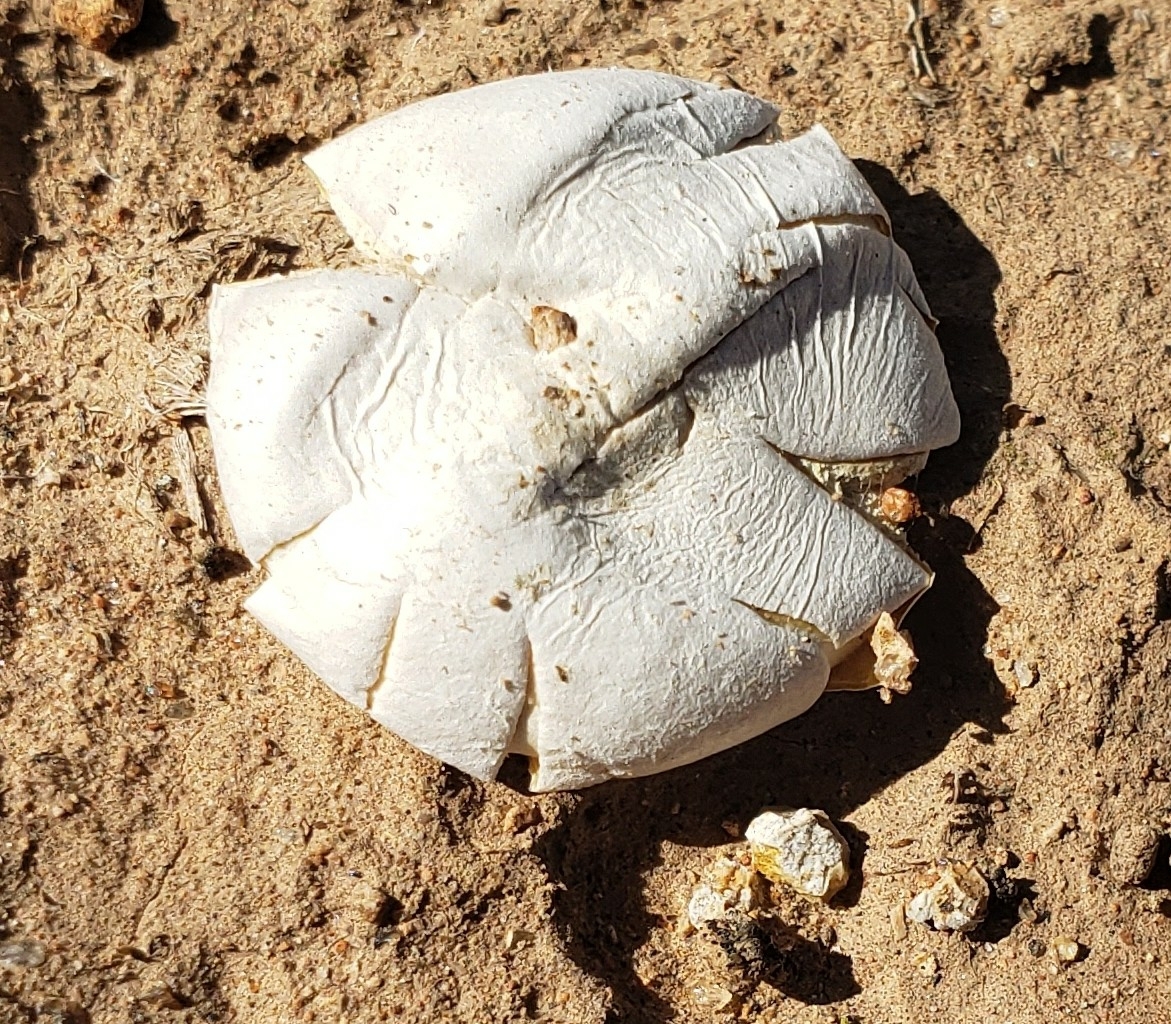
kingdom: Fungi
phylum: Basidiomycota
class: Agaricomycetes
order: Agaricales
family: Lycoperdaceae
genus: Calvatia
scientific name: Calvatia booniana
